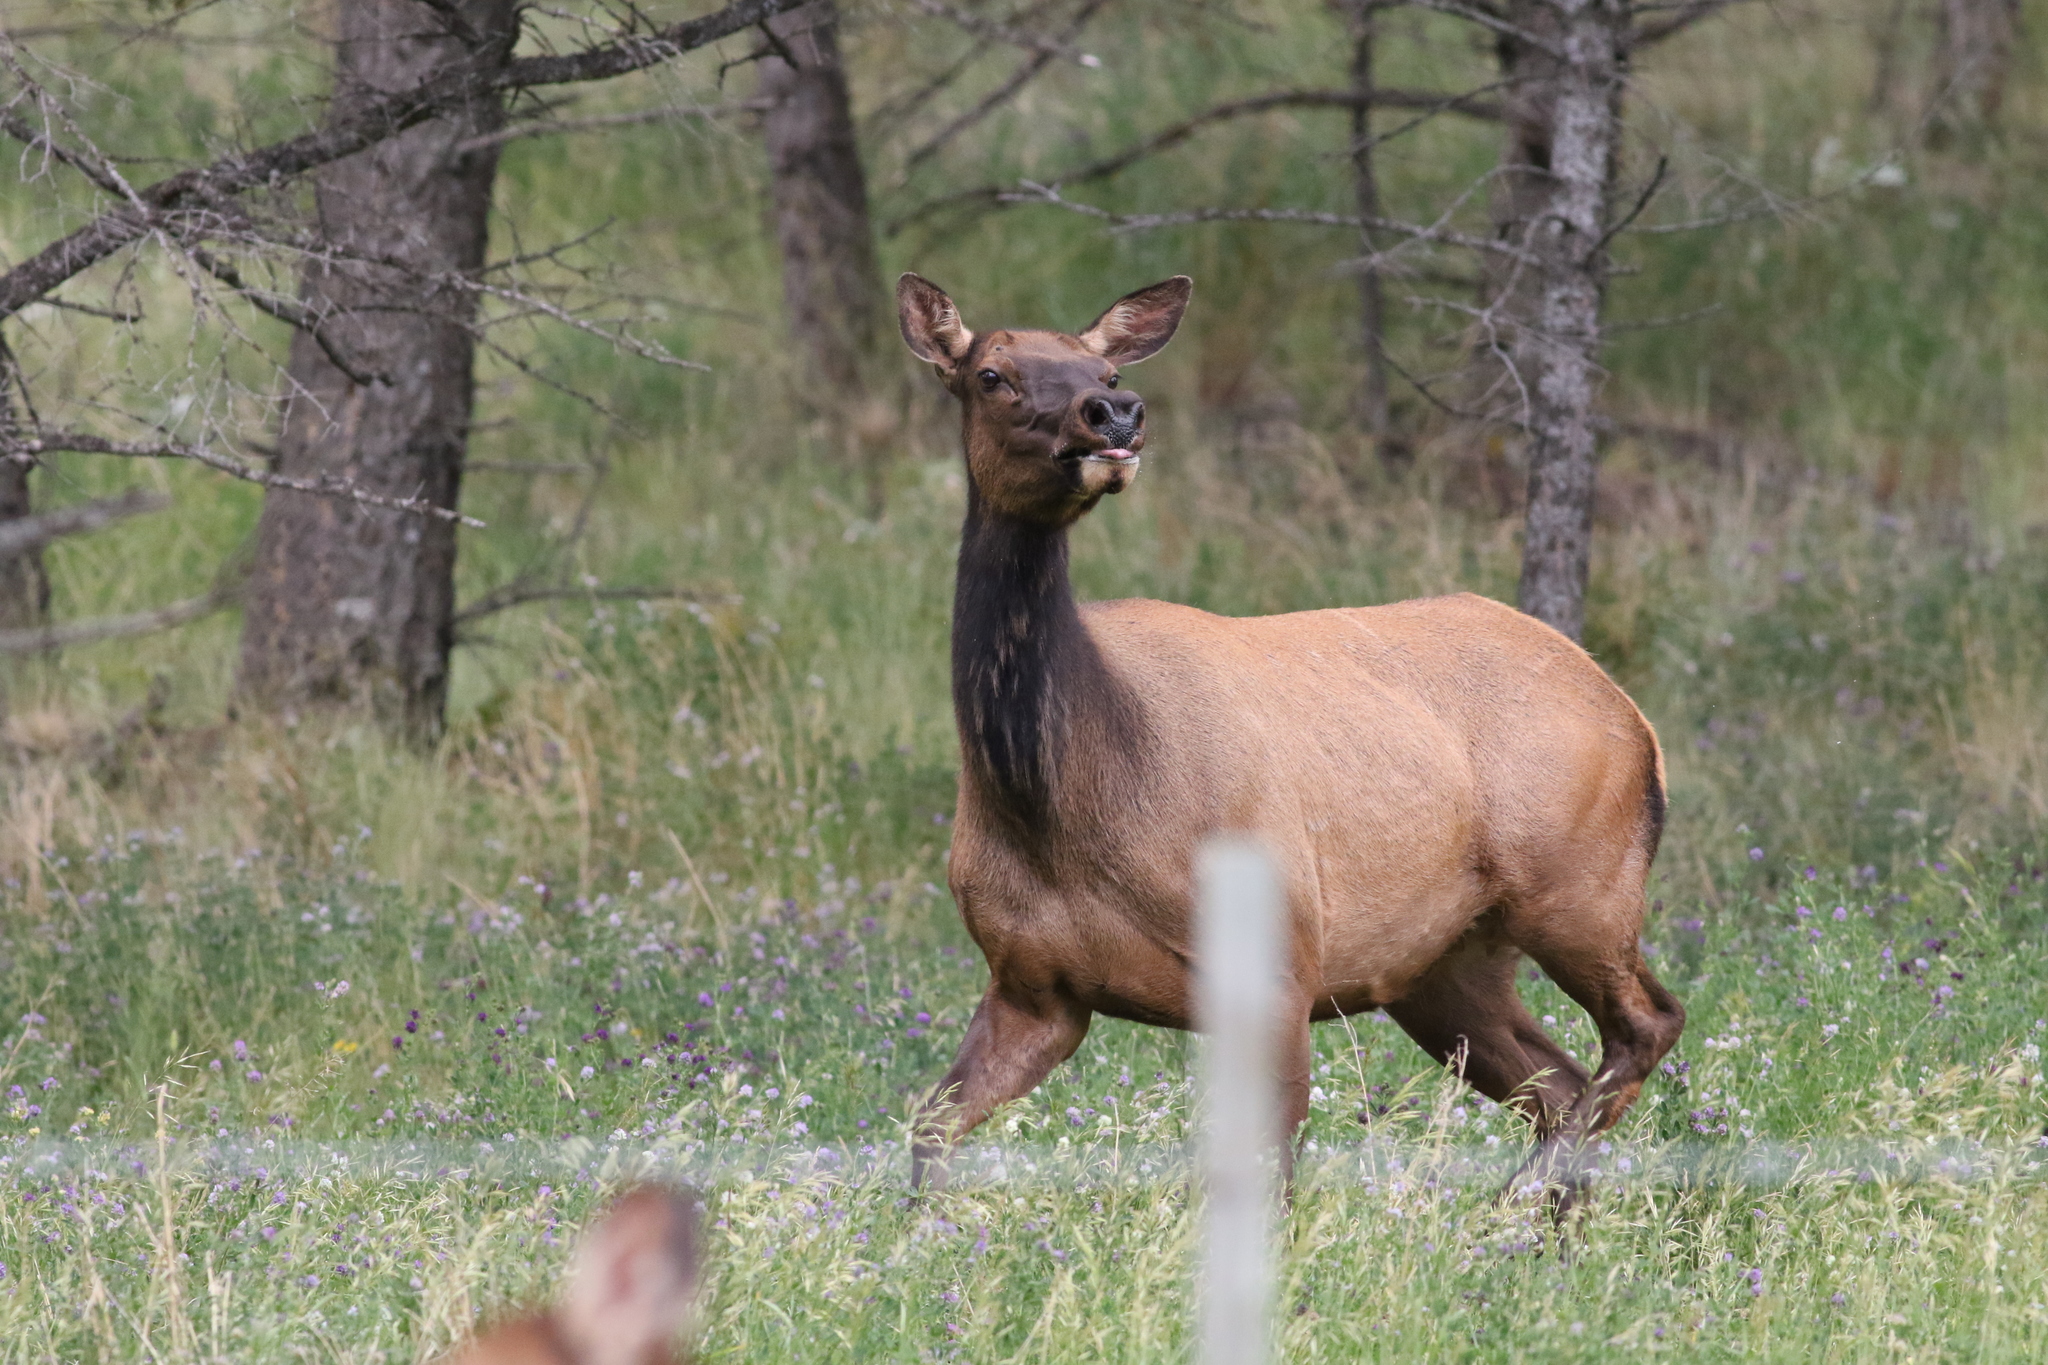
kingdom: Animalia
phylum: Chordata
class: Mammalia
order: Artiodactyla
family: Cervidae
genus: Cervus
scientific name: Cervus elaphus
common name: Red deer
